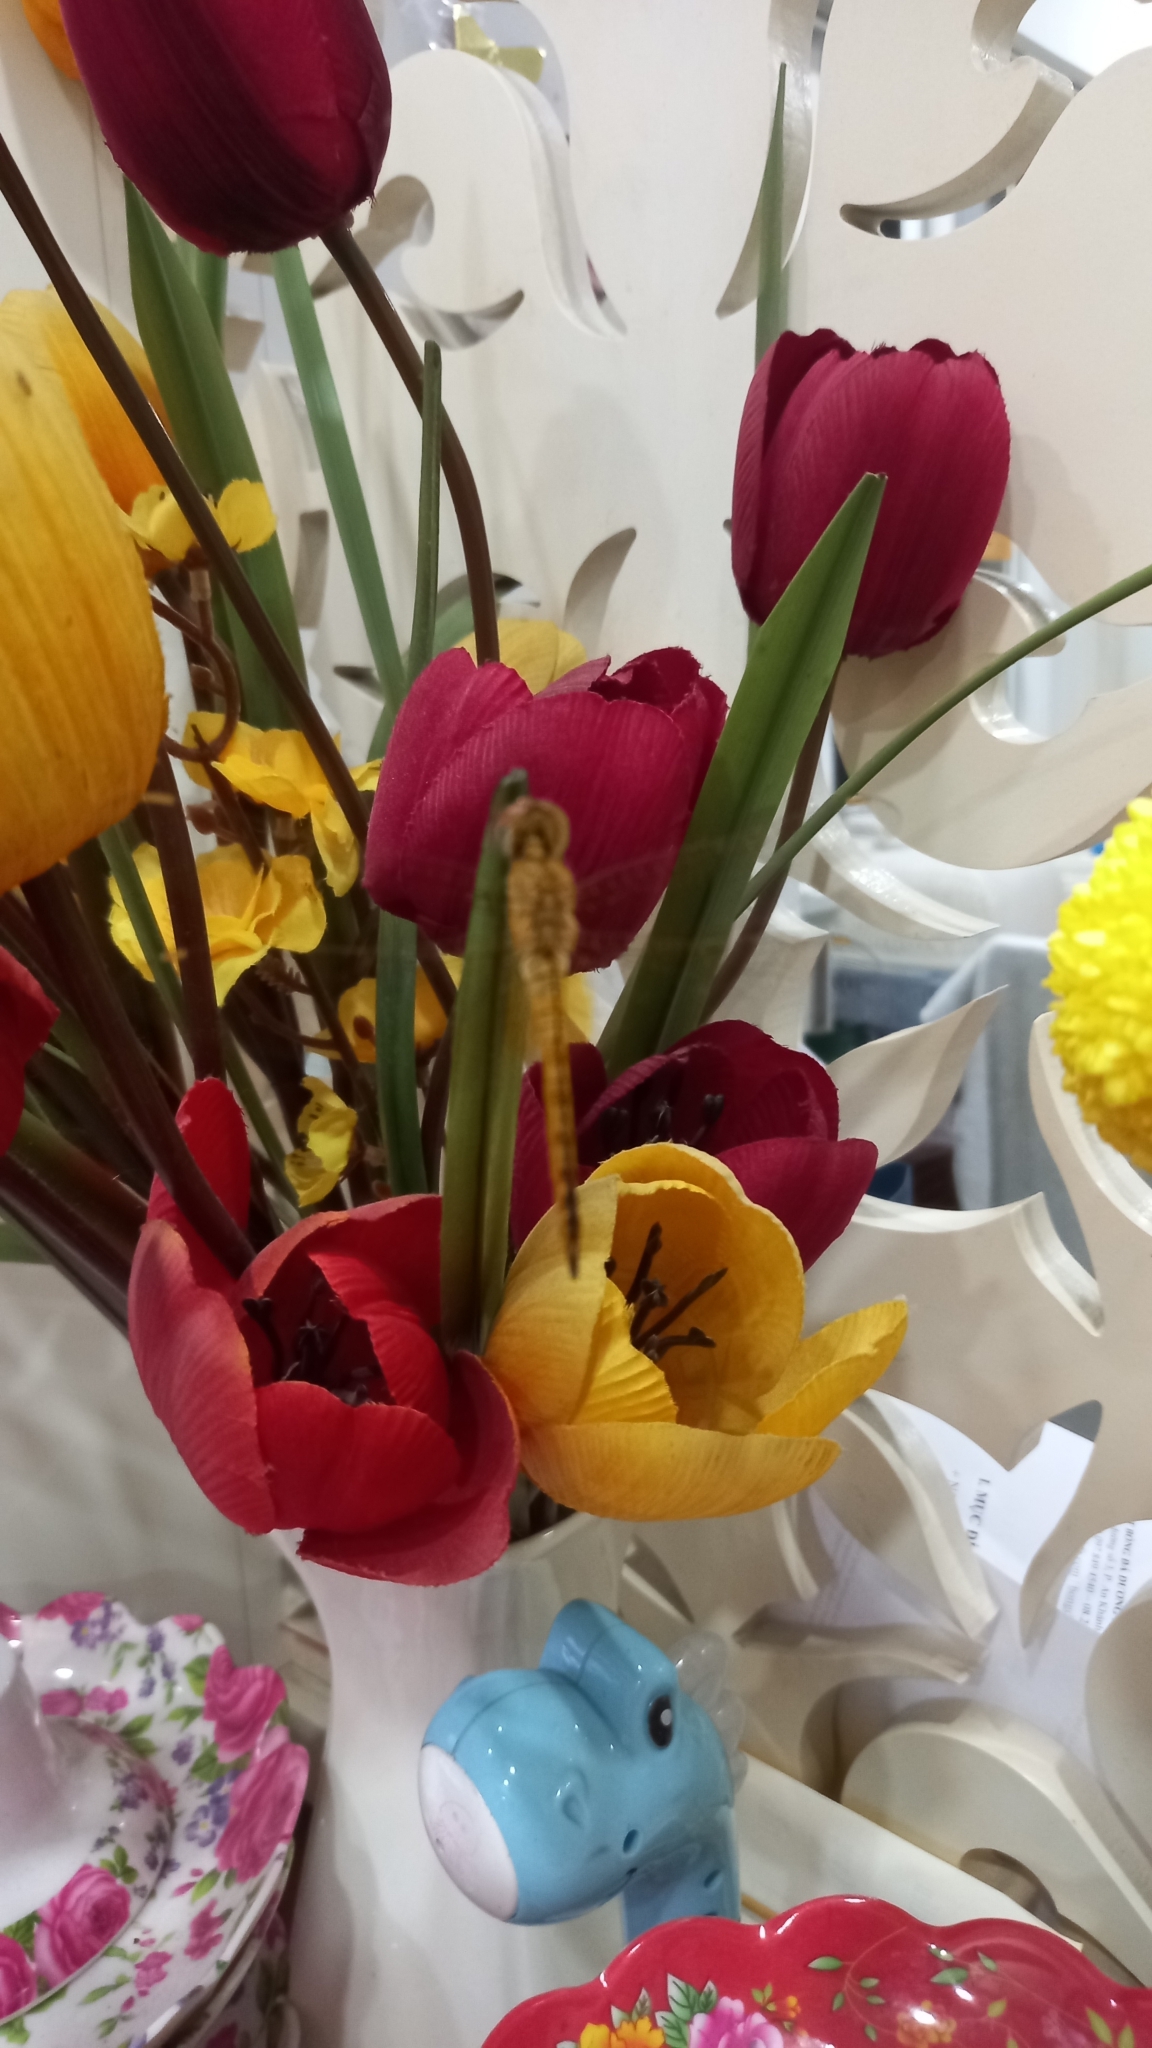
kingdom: Animalia
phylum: Arthropoda
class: Insecta
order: Odonata
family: Libellulidae
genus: Pantala
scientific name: Pantala flavescens
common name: Wandering glider
